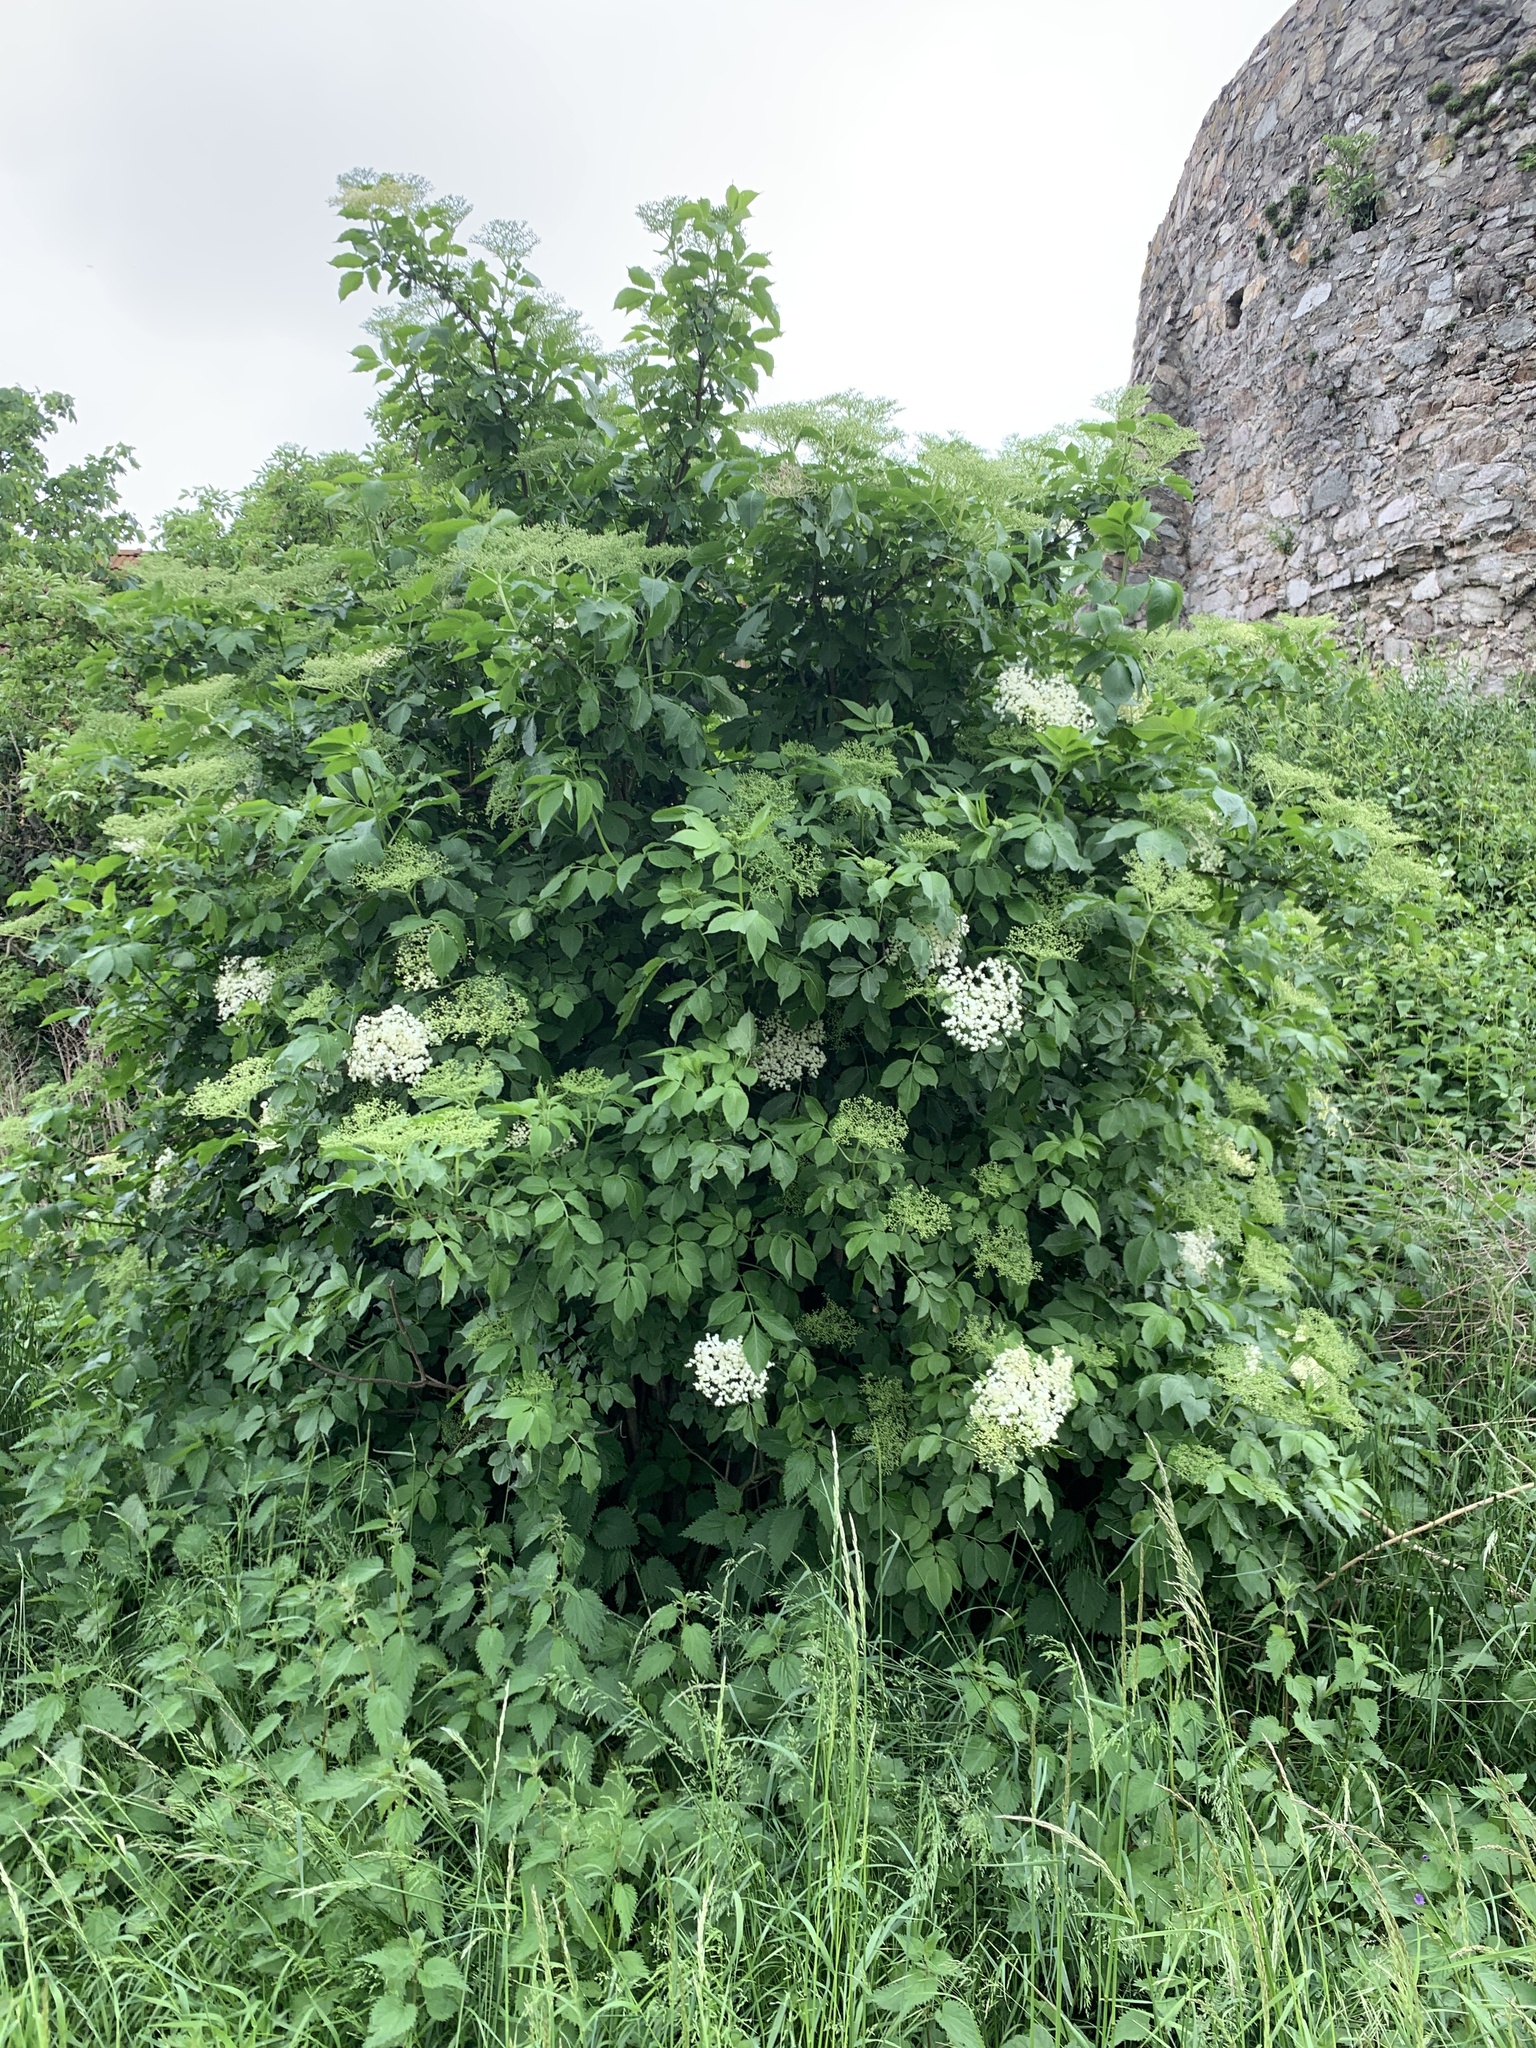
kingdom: Plantae
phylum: Tracheophyta
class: Magnoliopsida
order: Dipsacales
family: Viburnaceae
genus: Sambucus
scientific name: Sambucus nigra
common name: Elder
